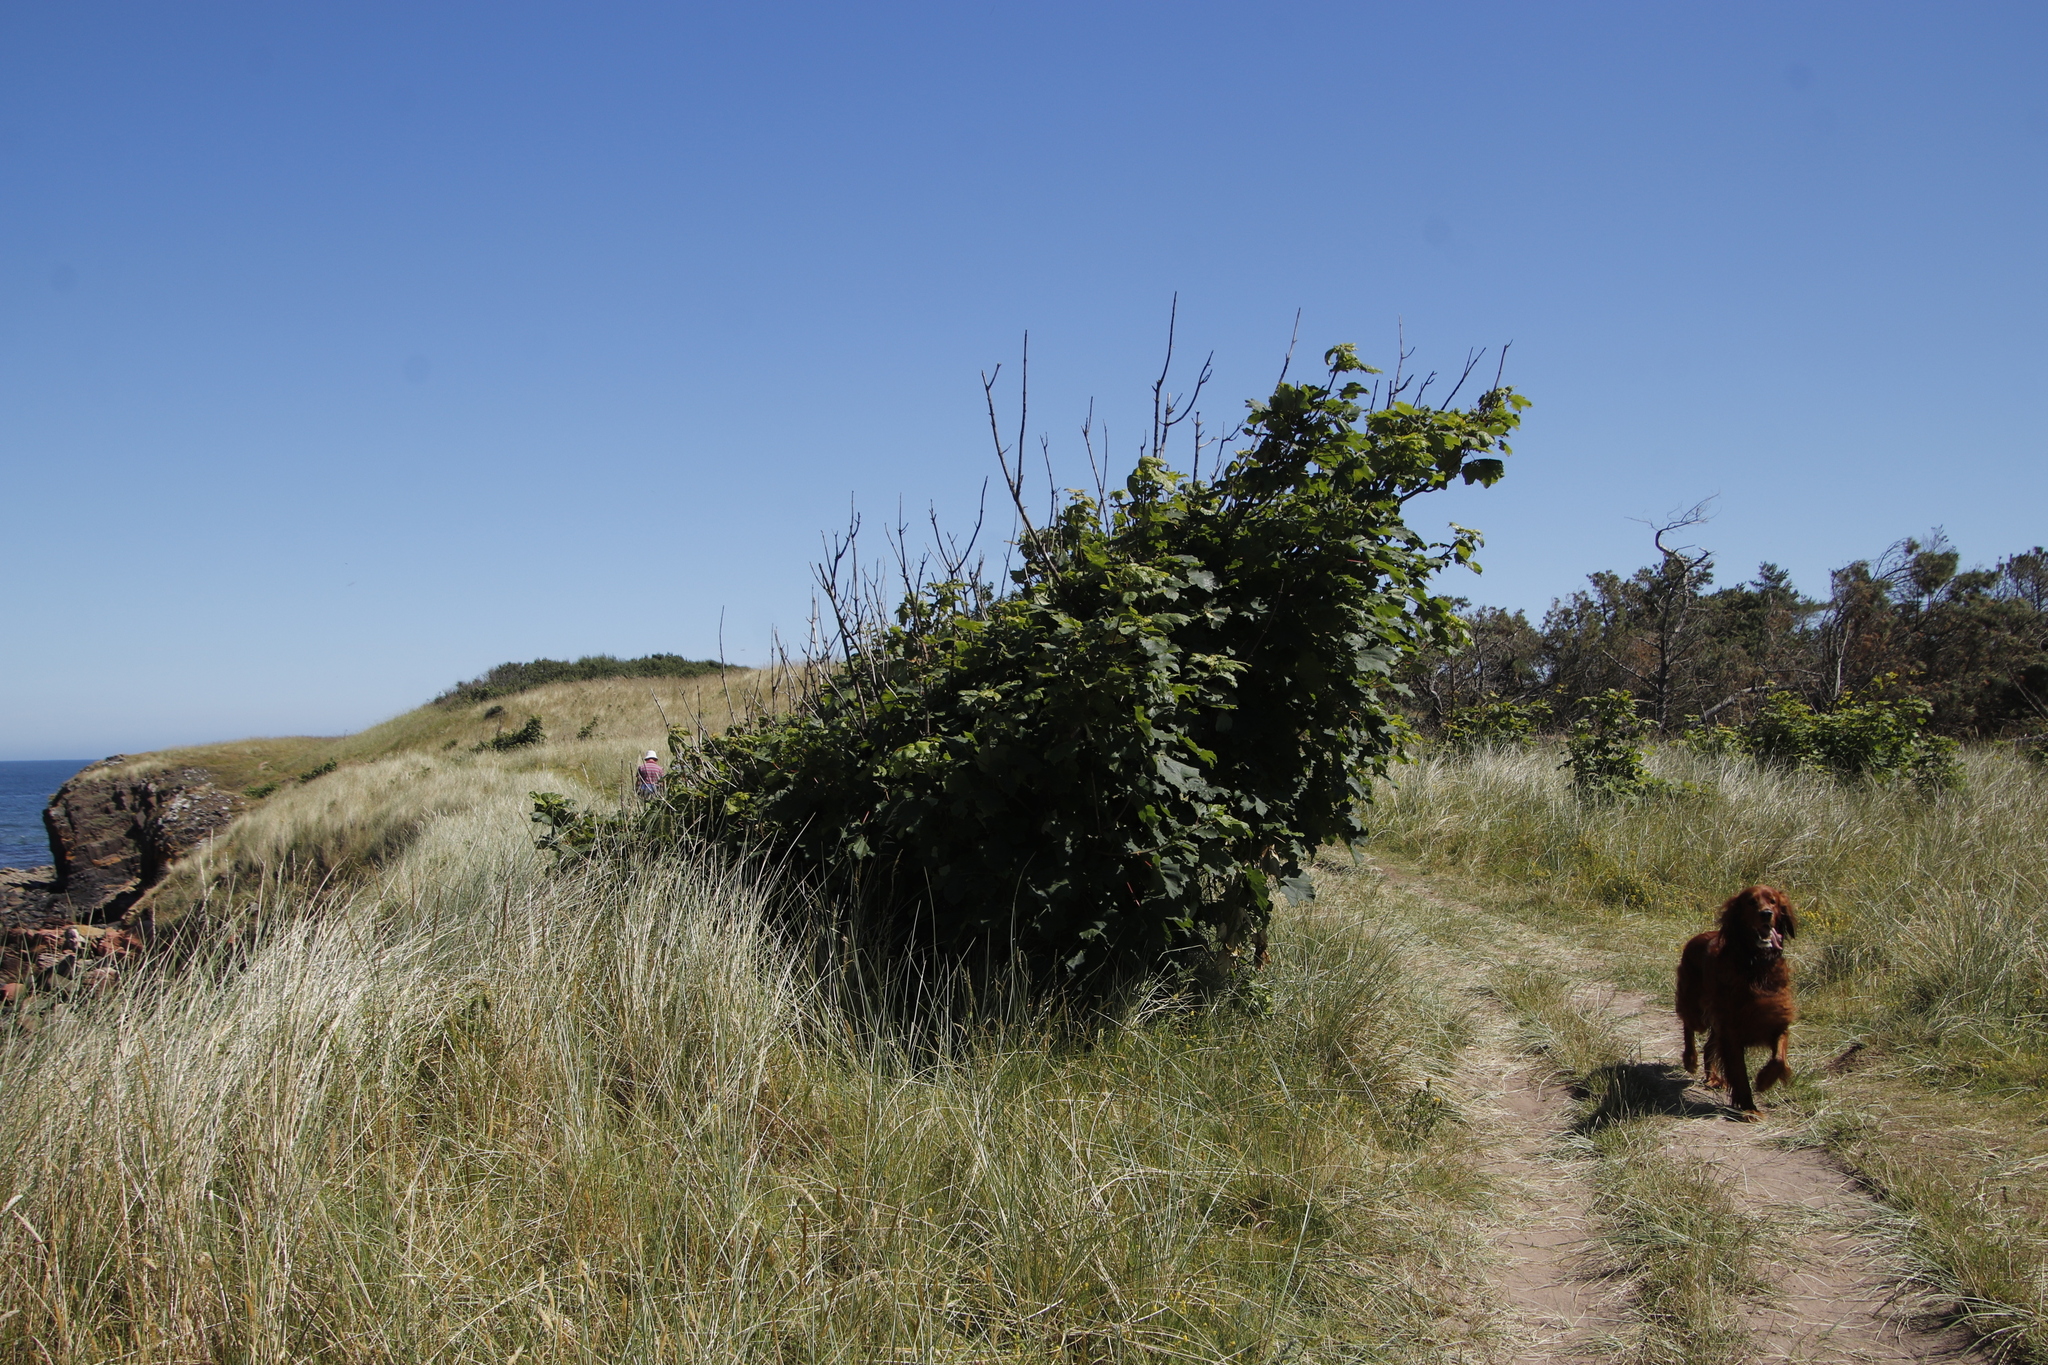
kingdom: Plantae
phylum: Tracheophyta
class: Magnoliopsida
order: Sapindales
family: Sapindaceae
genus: Acer
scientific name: Acer pseudoplatanus
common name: Sycamore
